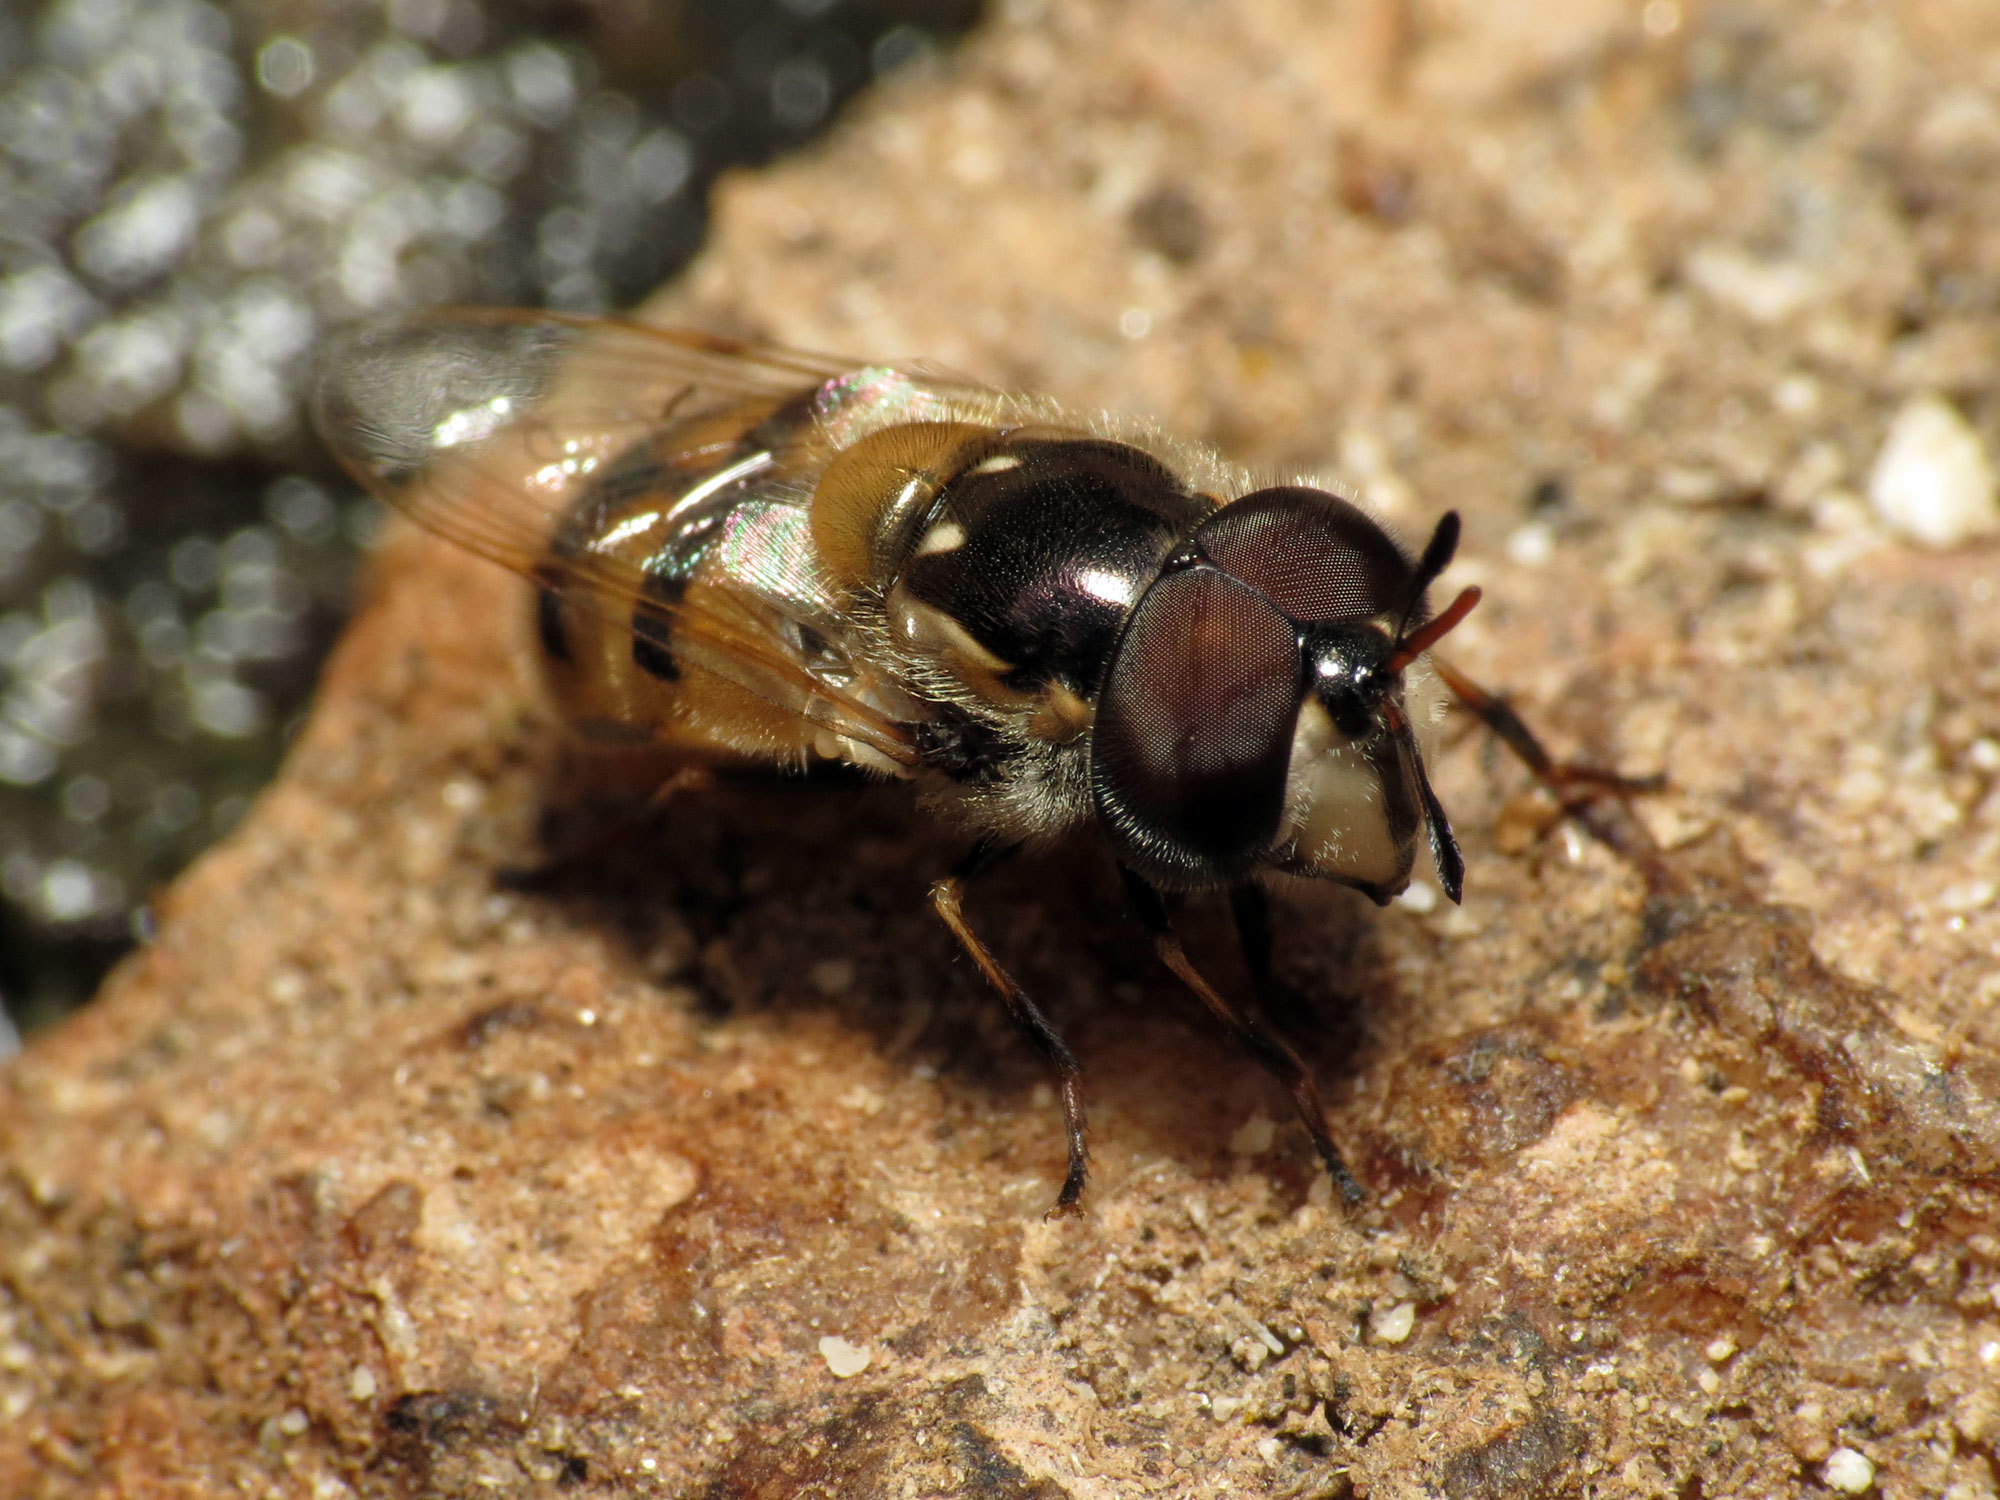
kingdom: Animalia
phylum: Arthropoda
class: Insecta
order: Diptera
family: Syrphidae
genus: Copestylum
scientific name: Copestylum marginatum
